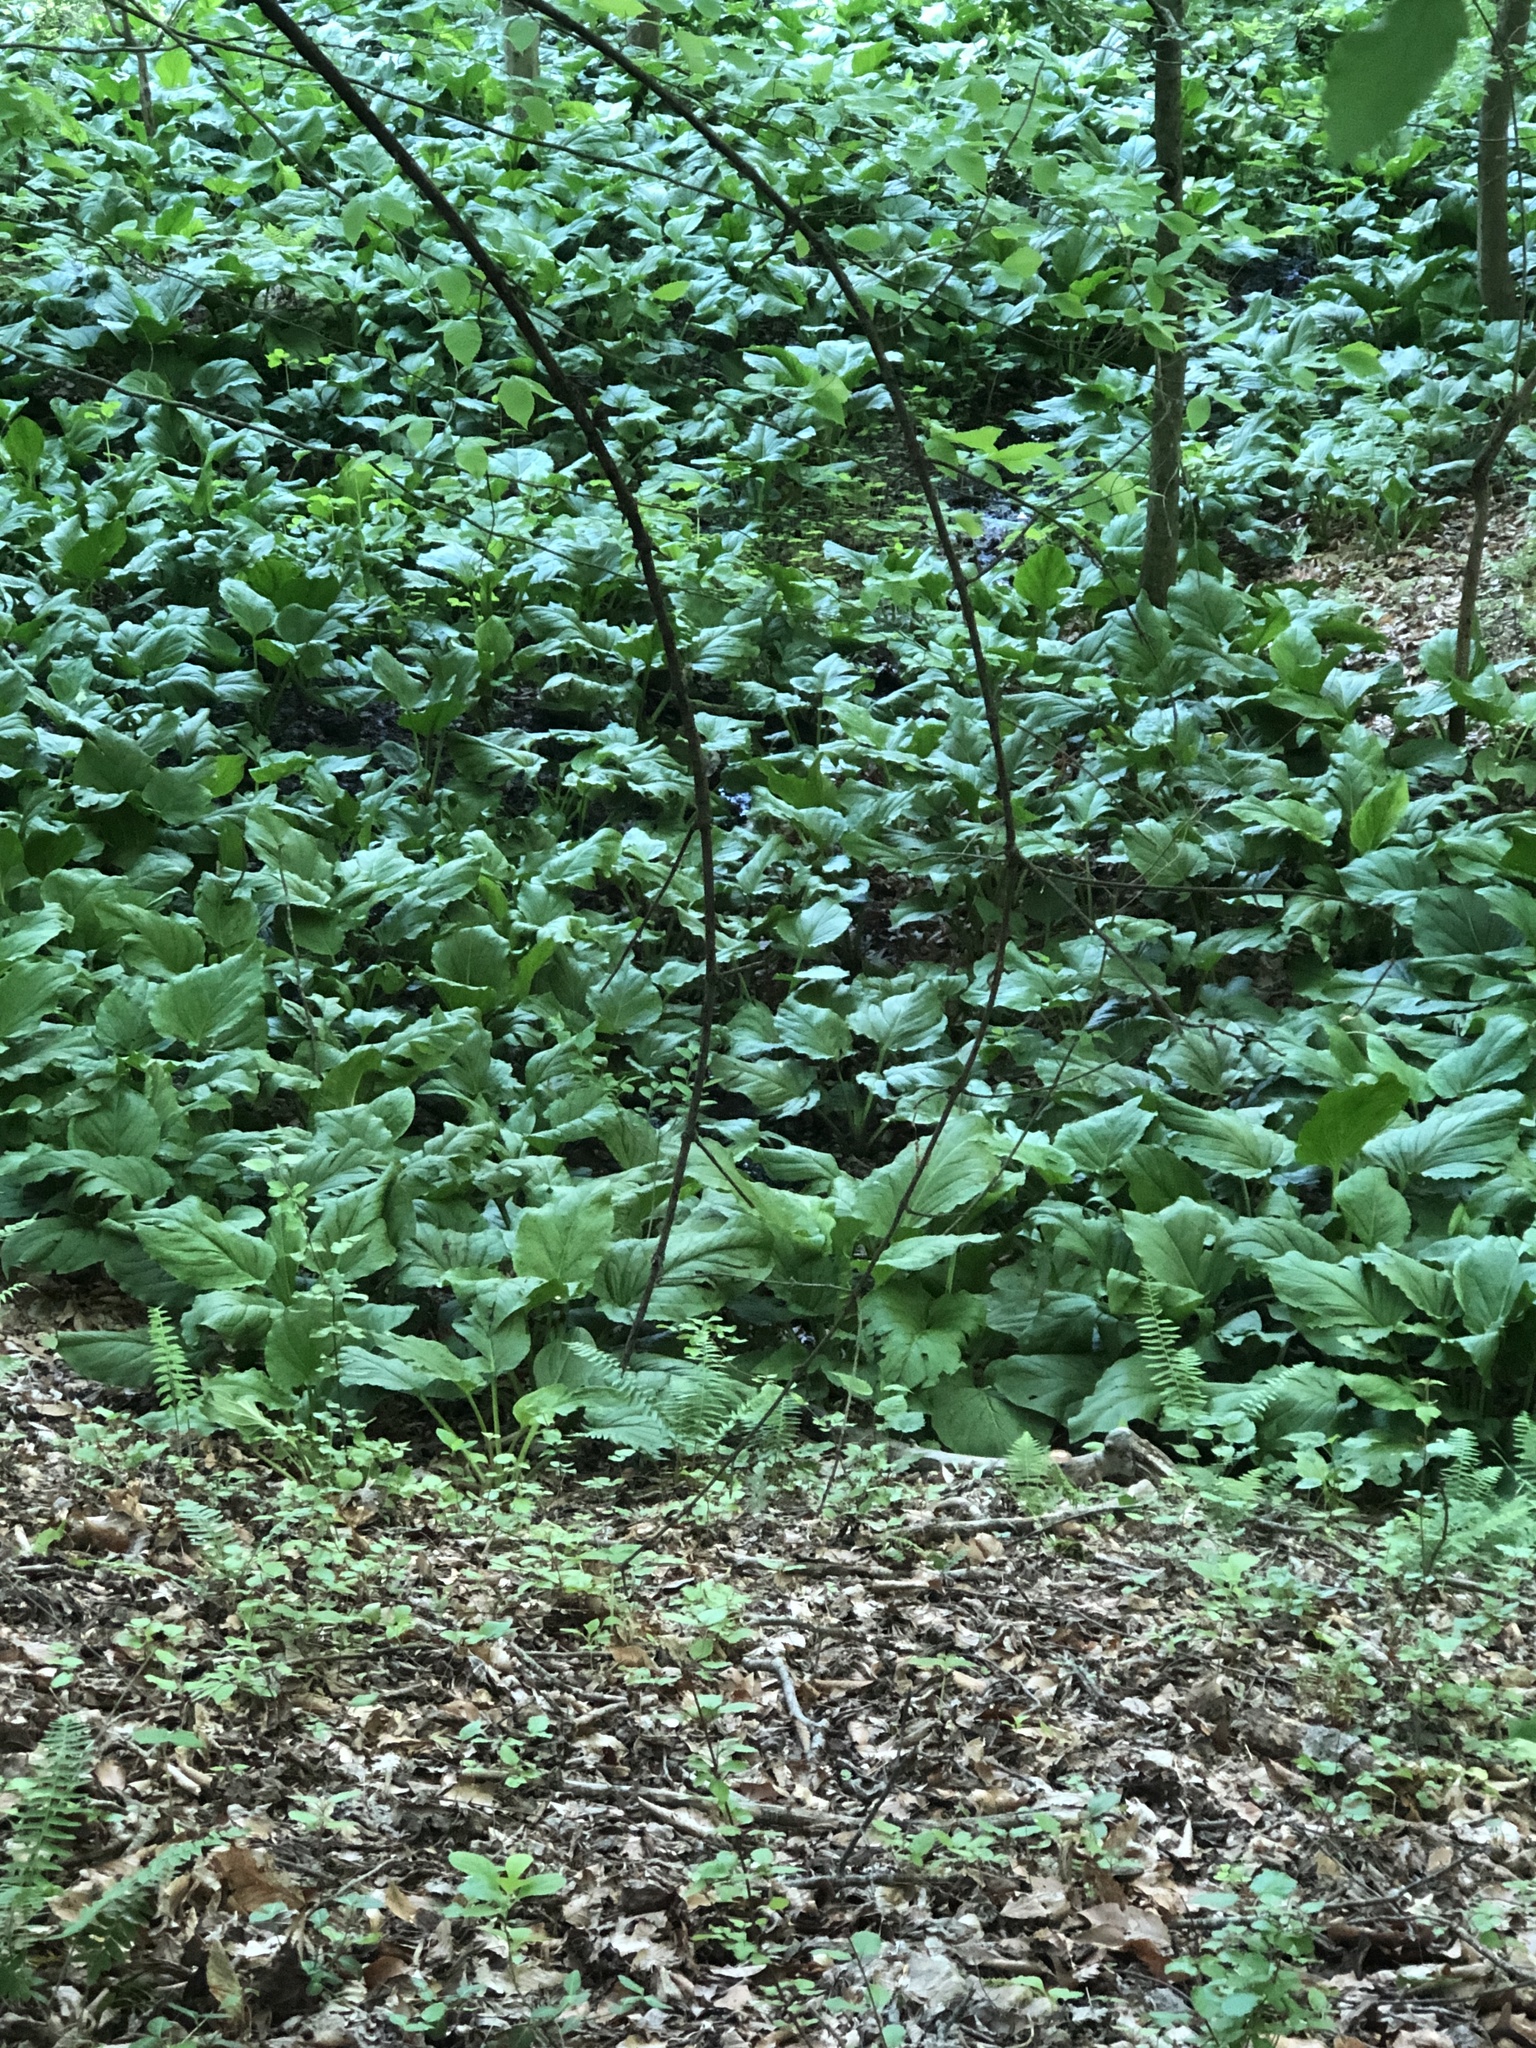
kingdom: Plantae
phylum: Tracheophyta
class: Liliopsida
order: Alismatales
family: Araceae
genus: Symplocarpus
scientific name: Symplocarpus foetidus
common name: Eastern skunk cabbage
